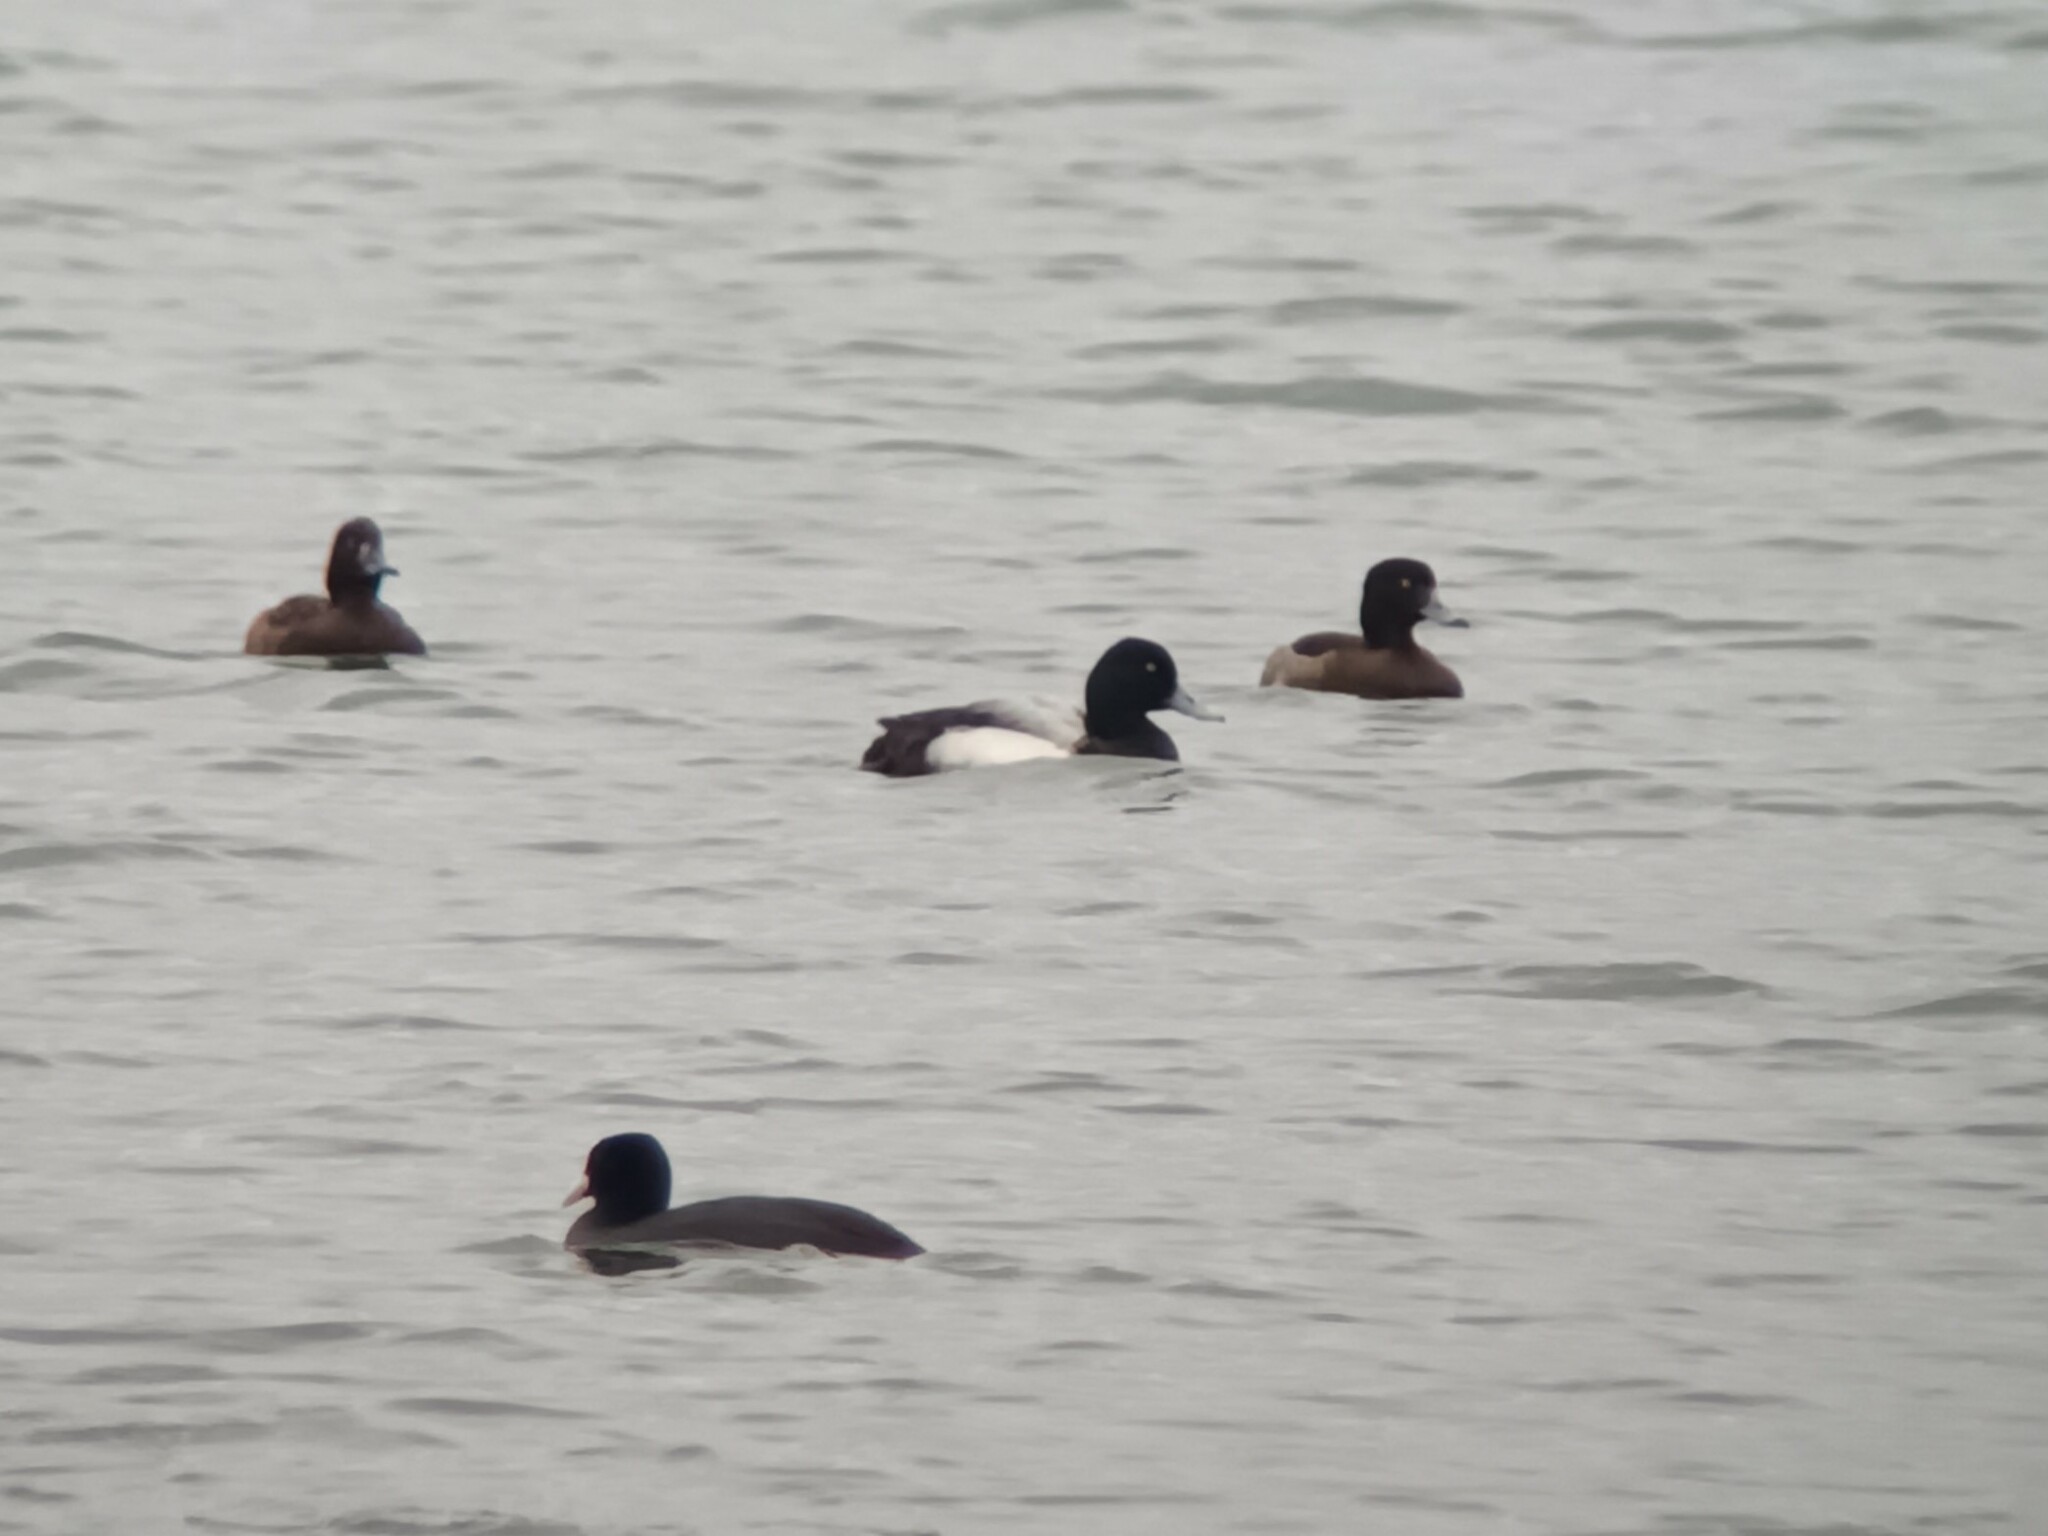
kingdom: Animalia
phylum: Chordata
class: Aves
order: Anseriformes
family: Anatidae
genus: Aythya
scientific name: Aythya marila
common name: Greater scaup
